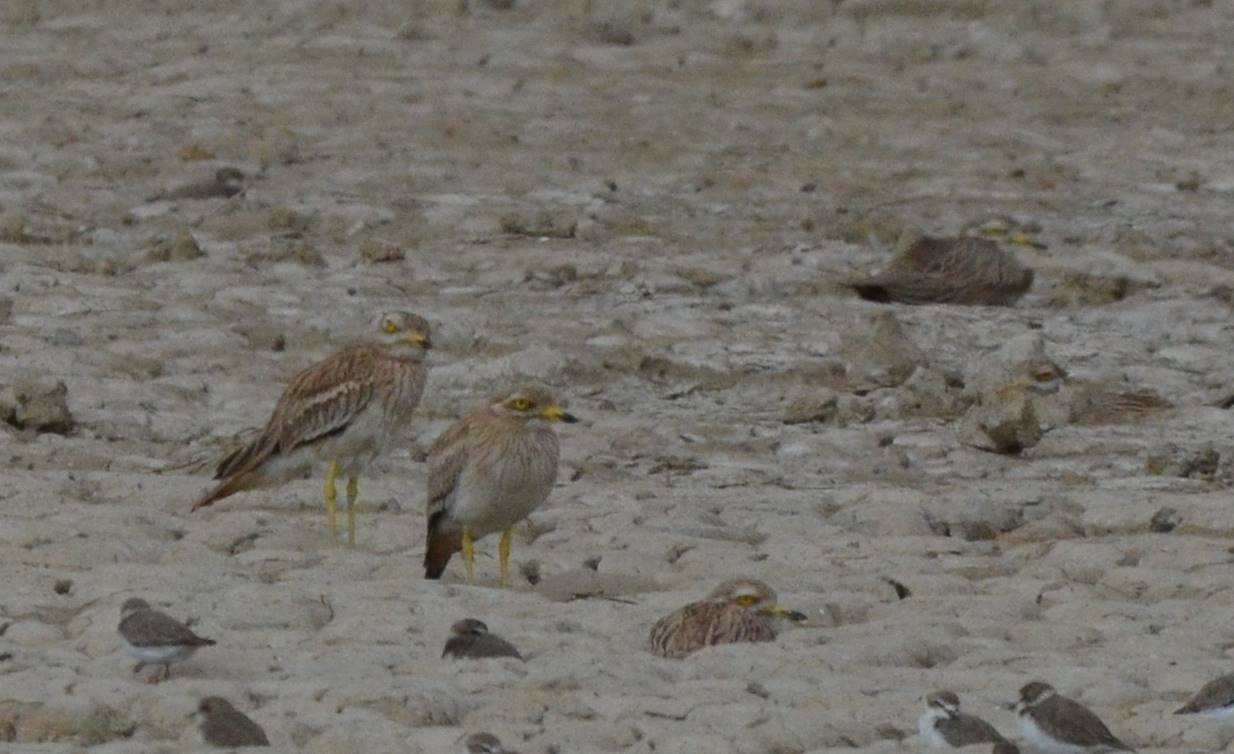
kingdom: Animalia
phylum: Chordata
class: Aves
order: Charadriiformes
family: Burhinidae
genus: Burhinus
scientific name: Burhinus oedicnemus
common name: Eurasian stone-curlew
